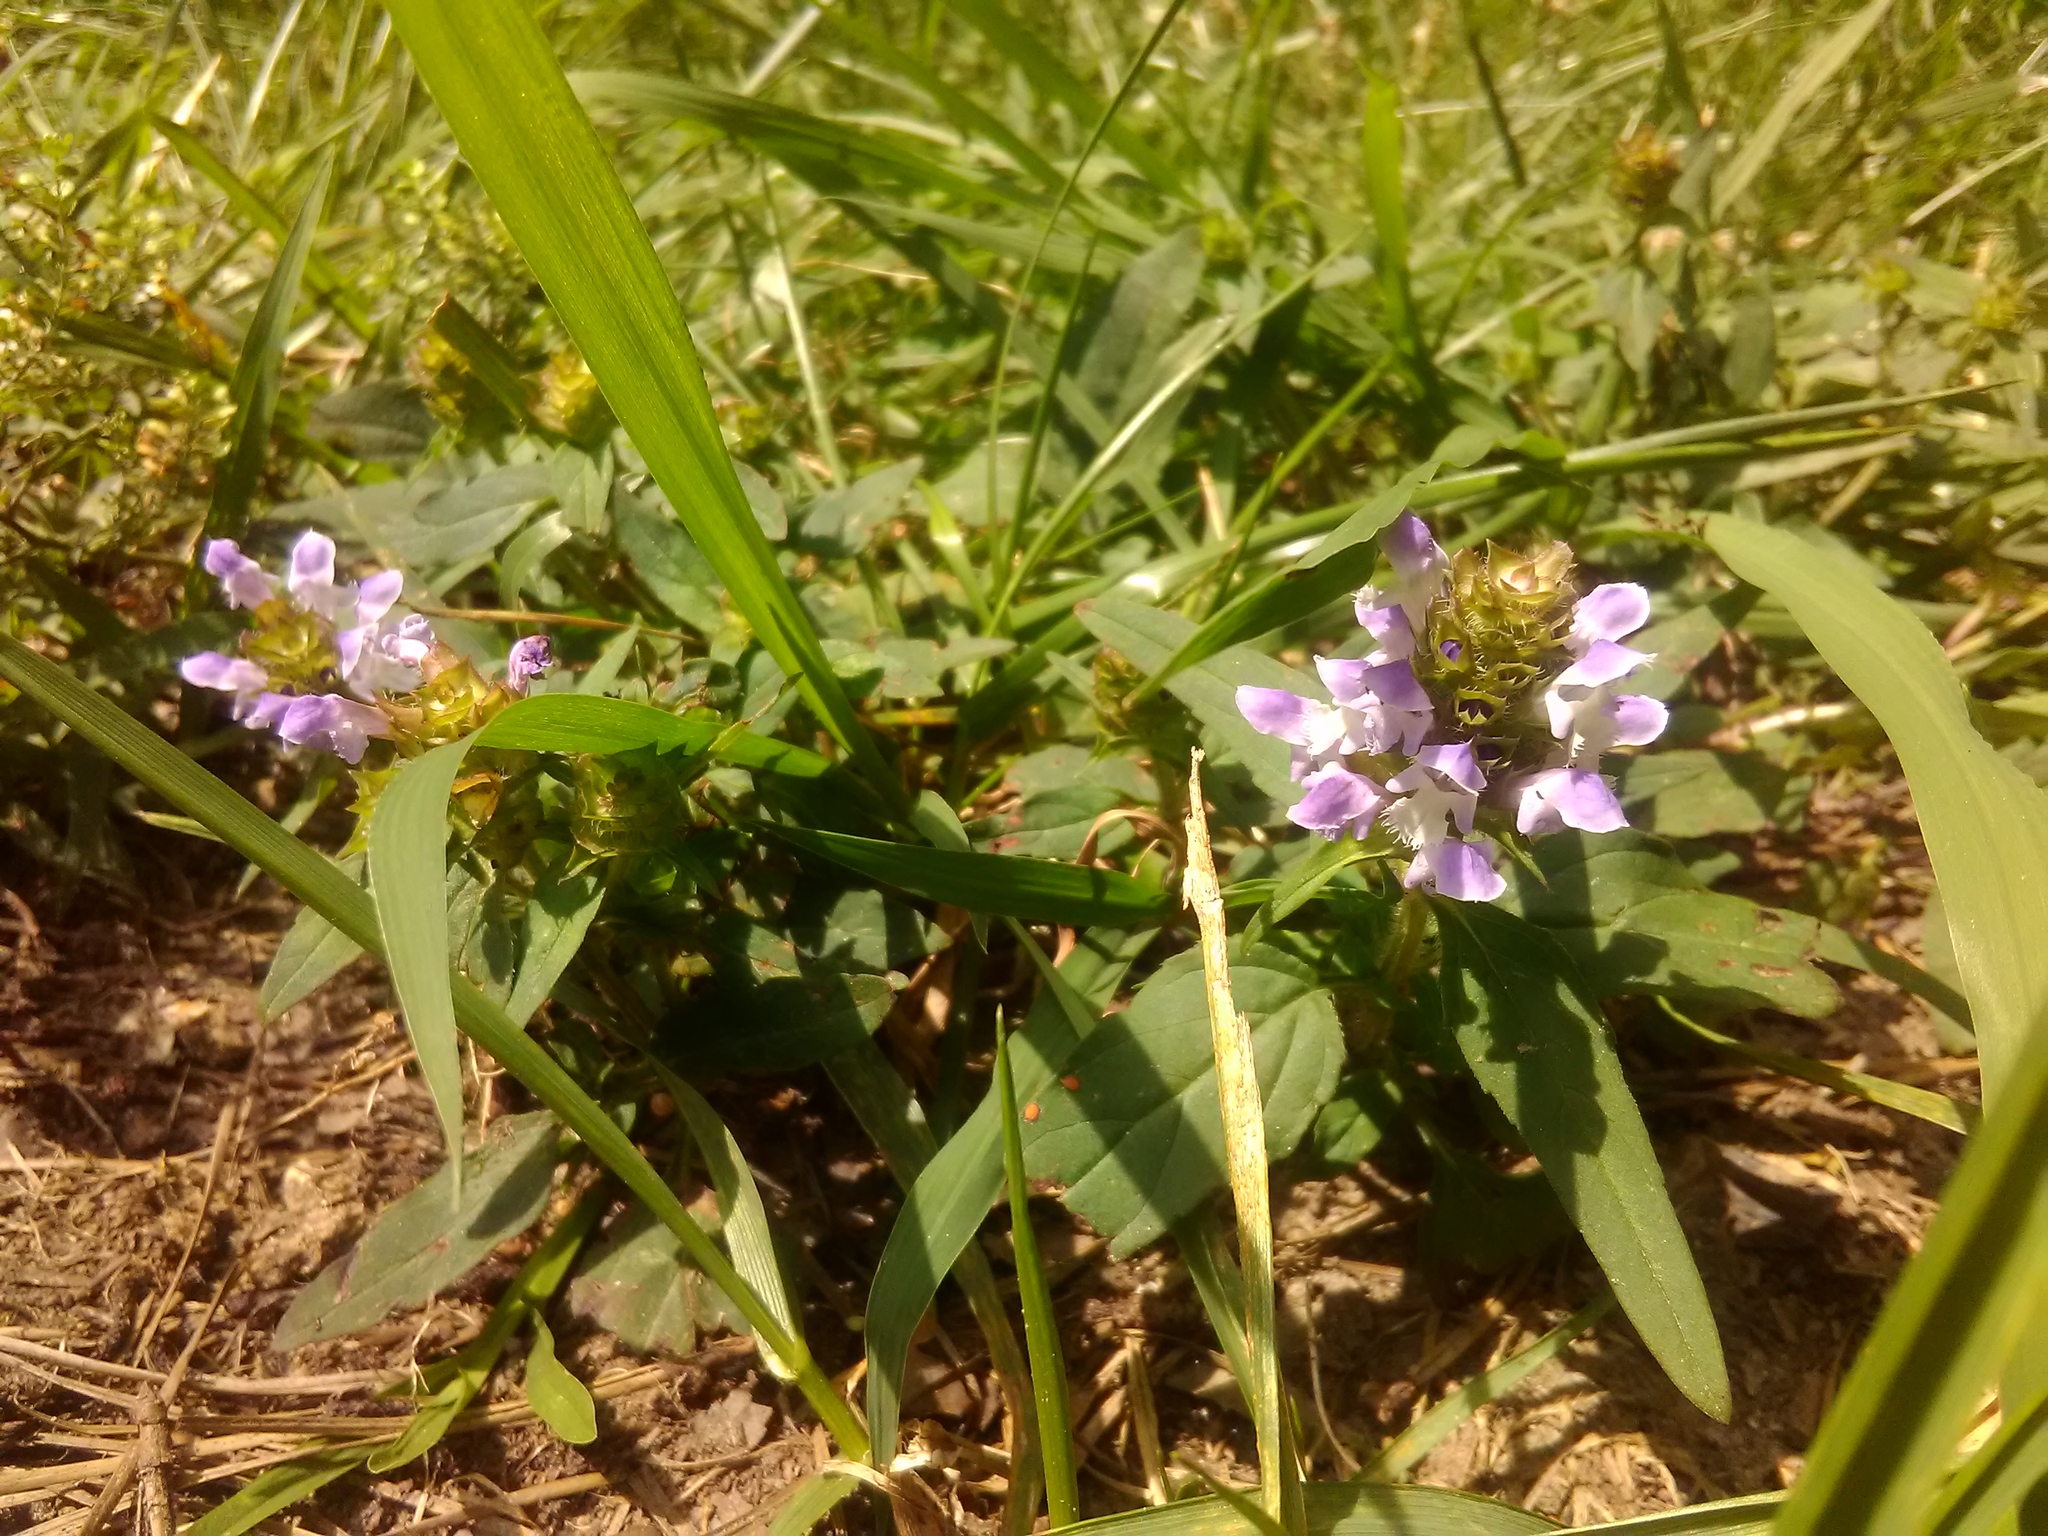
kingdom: Plantae
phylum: Tracheophyta
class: Magnoliopsida
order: Lamiales
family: Lamiaceae
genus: Prunella
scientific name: Prunella vulgaris
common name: Heal-all
